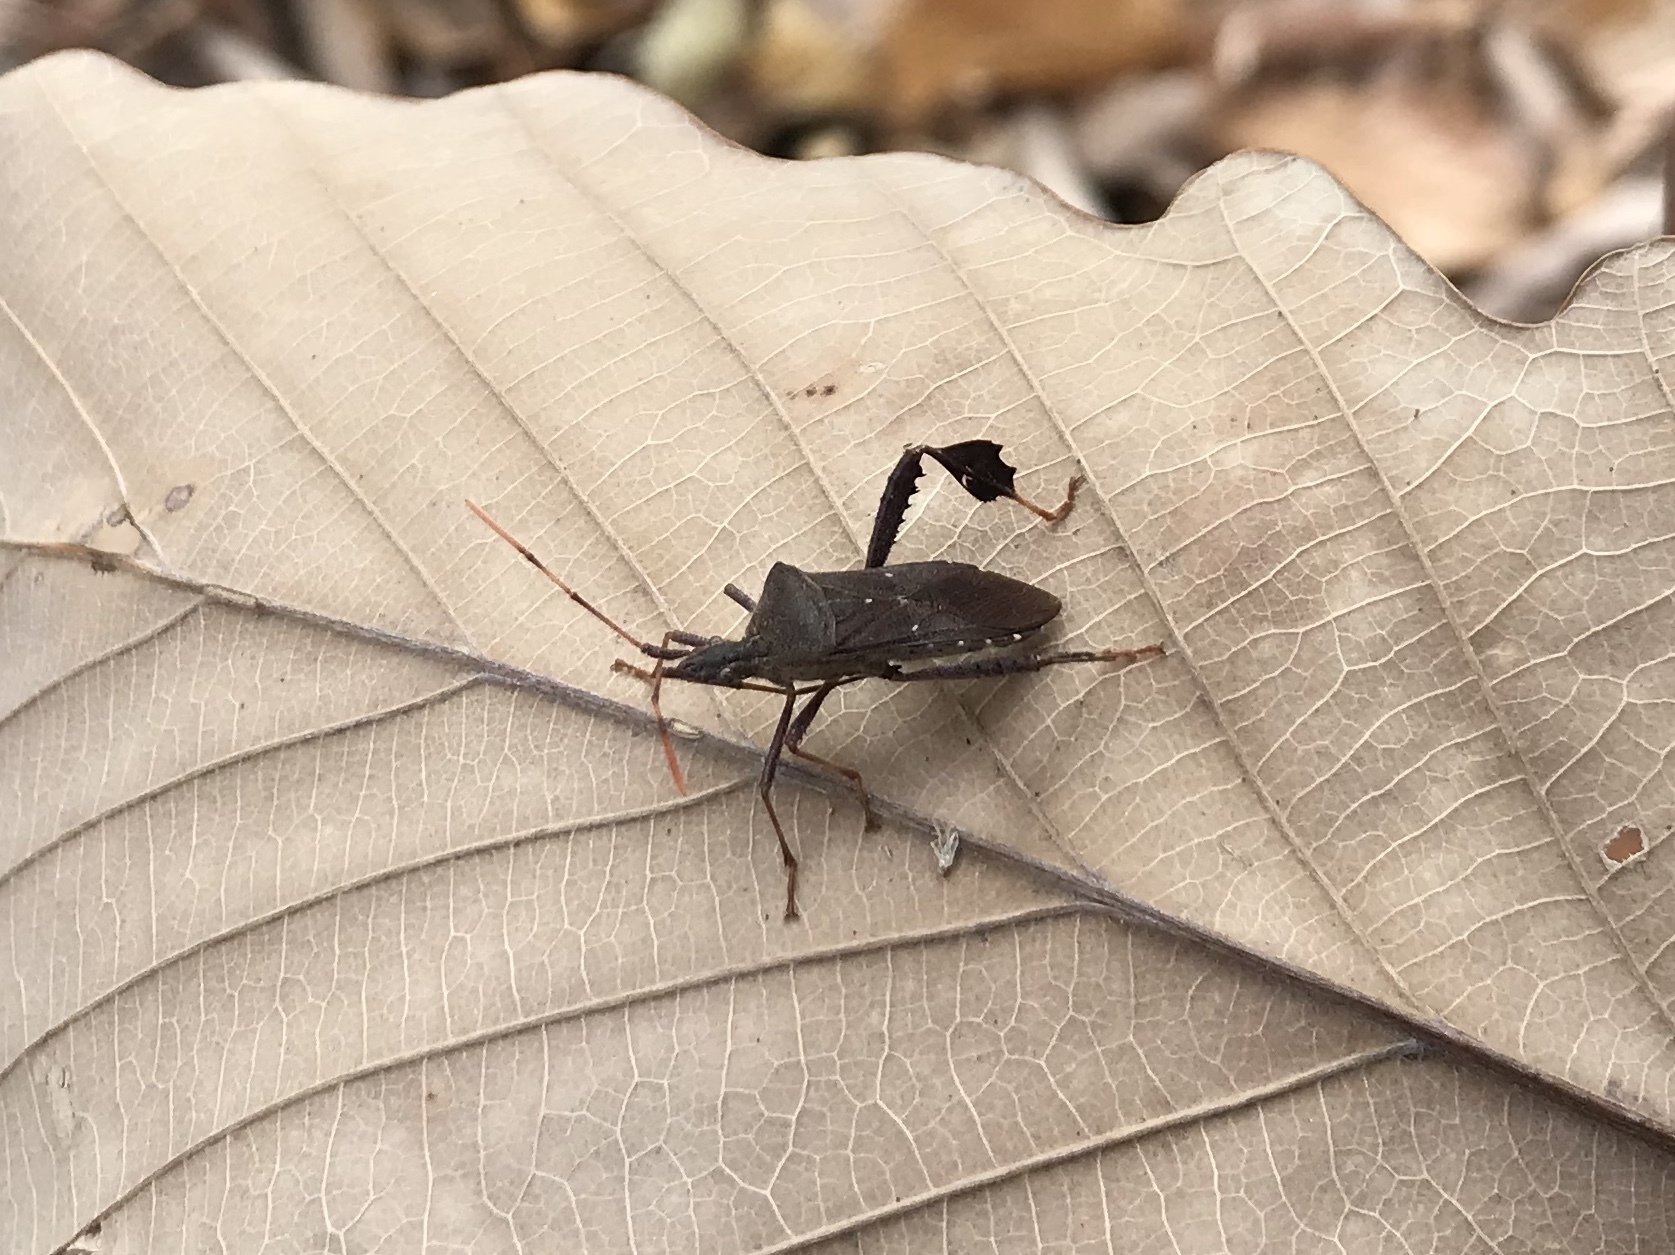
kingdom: Animalia
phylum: Arthropoda
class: Insecta
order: Hemiptera
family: Coreidae
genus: Leptoglossus
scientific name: Leptoglossus oppositus
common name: Northern leaf-footed bug
